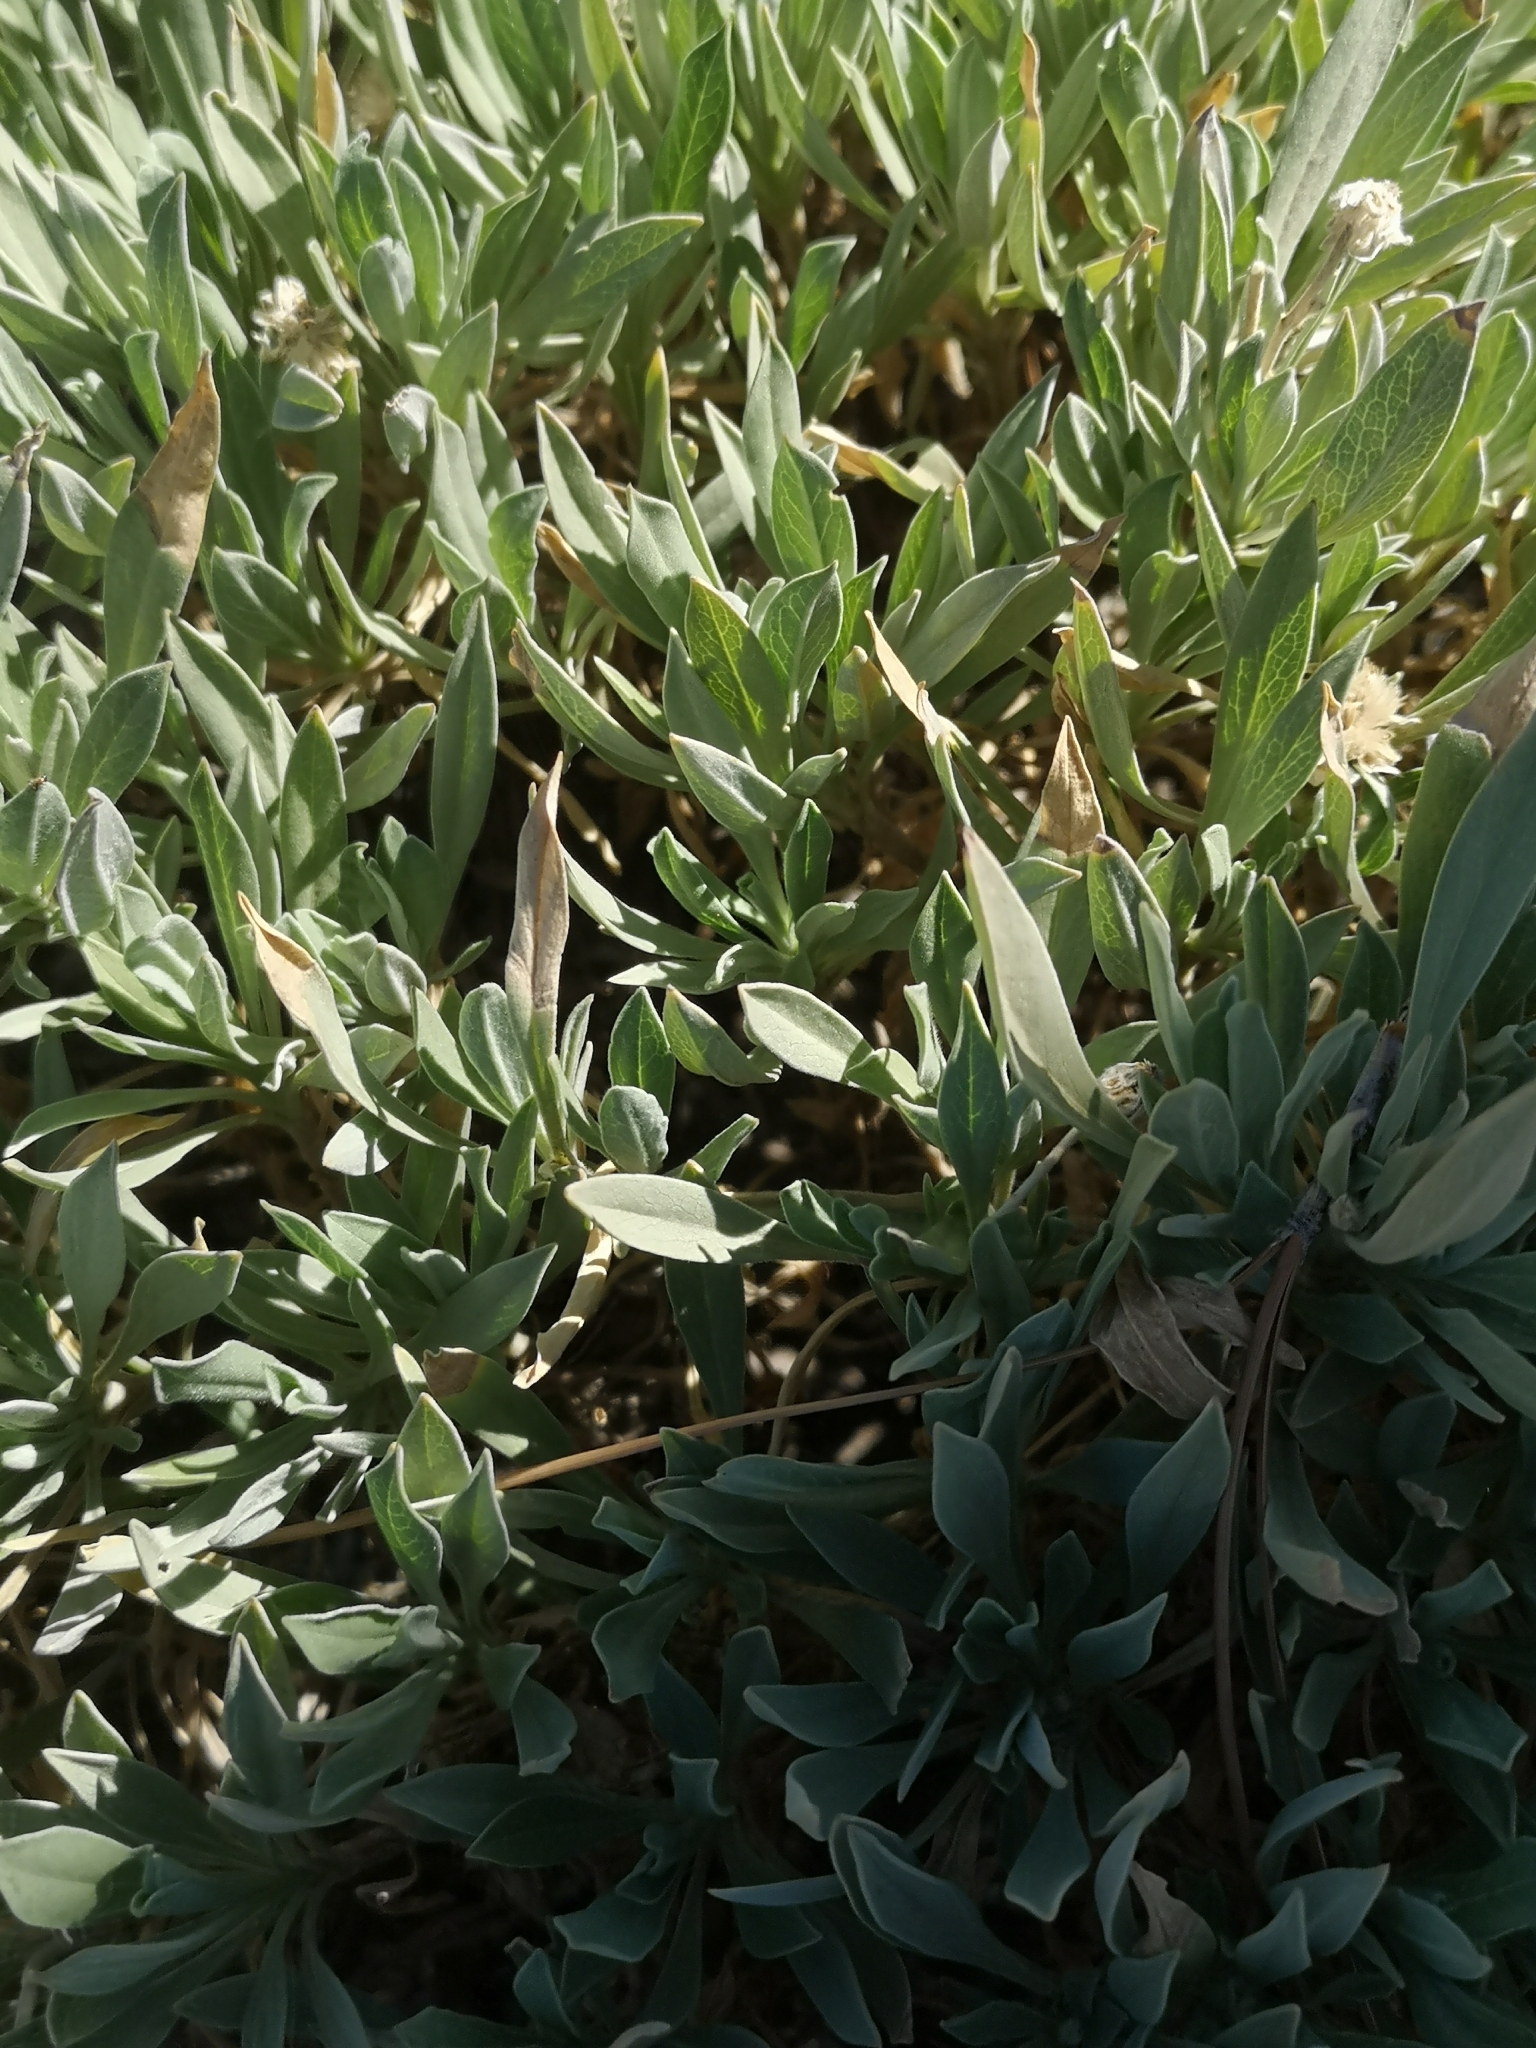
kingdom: Plantae
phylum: Tracheophyta
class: Magnoliopsida
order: Dipsacales
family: Caprifoliaceae
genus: Pterocephalus
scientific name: Pterocephalus lasiospermus
